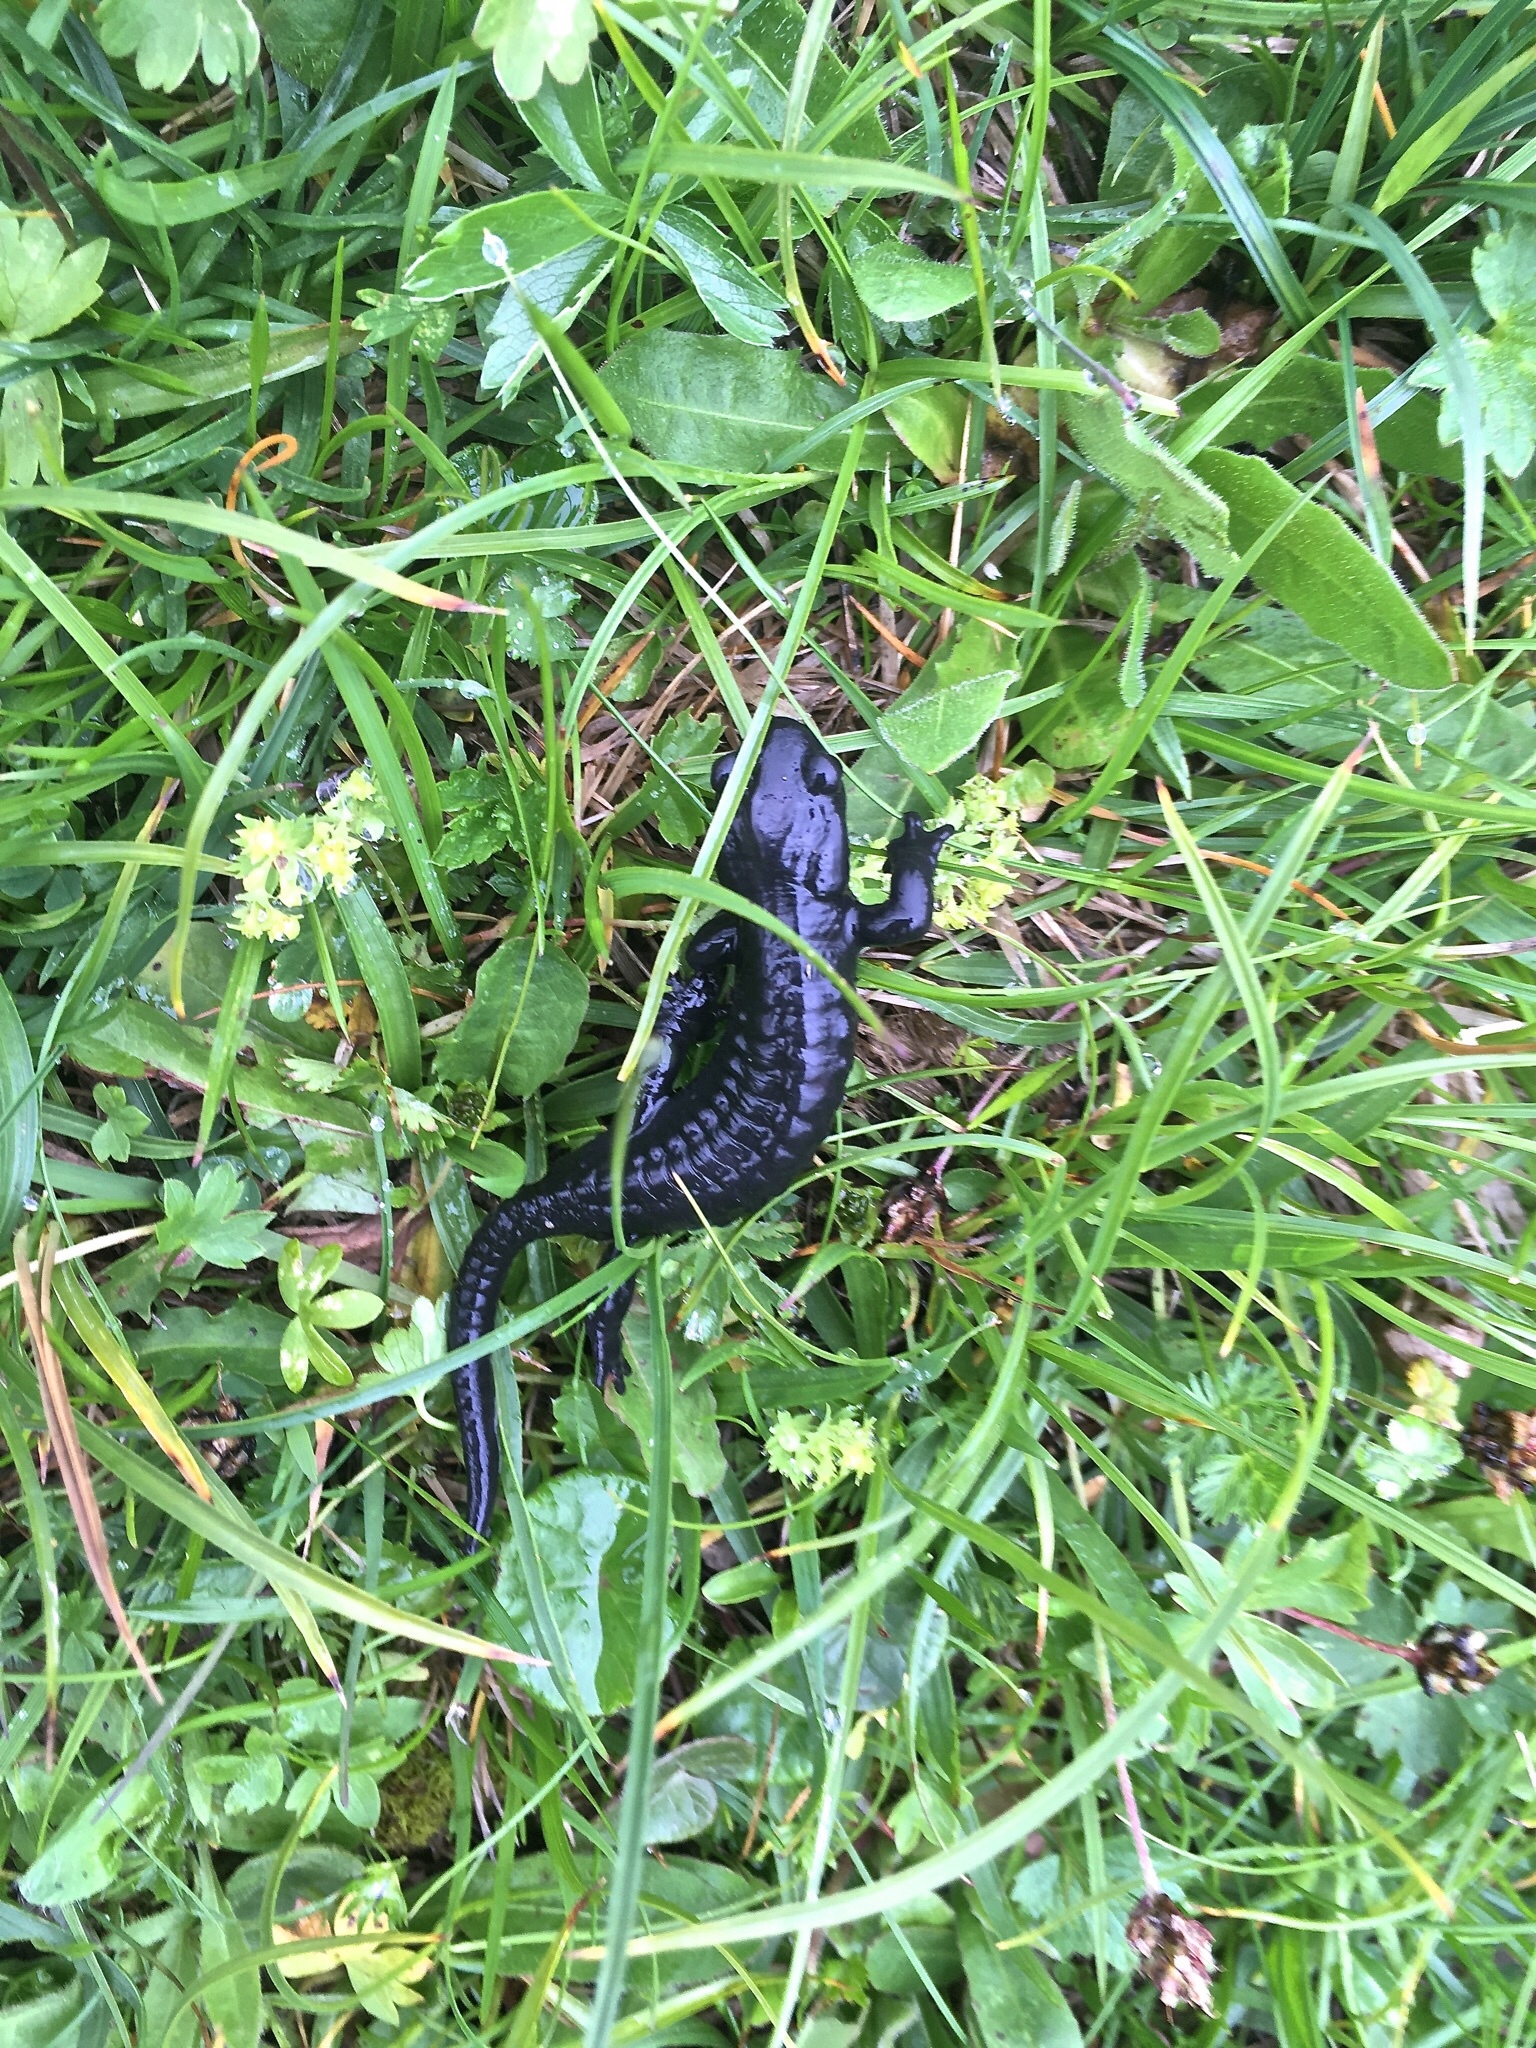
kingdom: Animalia
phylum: Chordata
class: Amphibia
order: Caudata
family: Salamandridae
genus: Salamandra
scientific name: Salamandra atra
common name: Alpine salamander
